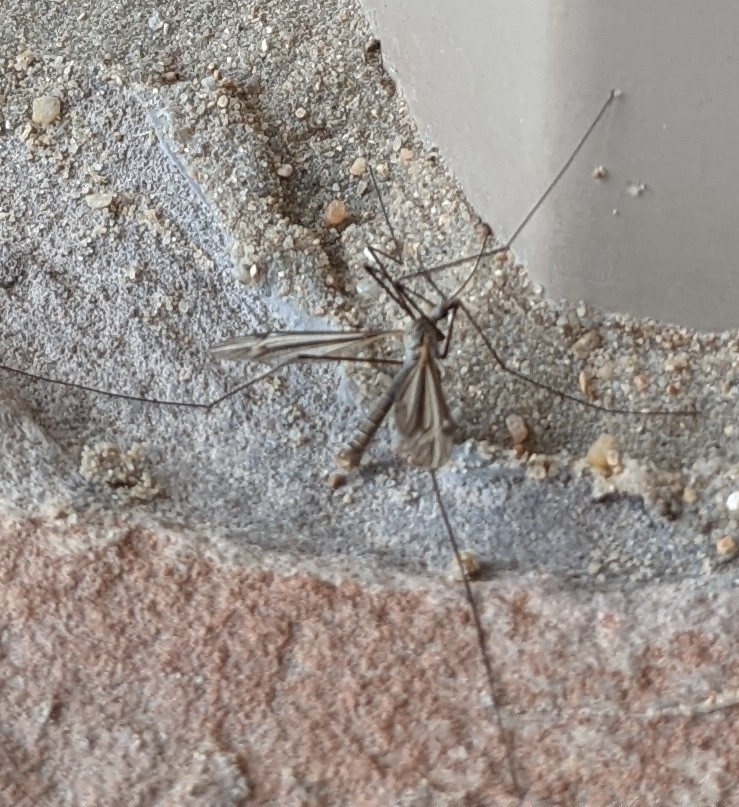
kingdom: Animalia
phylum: Arthropoda
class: Insecta
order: Diptera
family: Tipulidae
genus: Tipula
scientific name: Tipula furca
